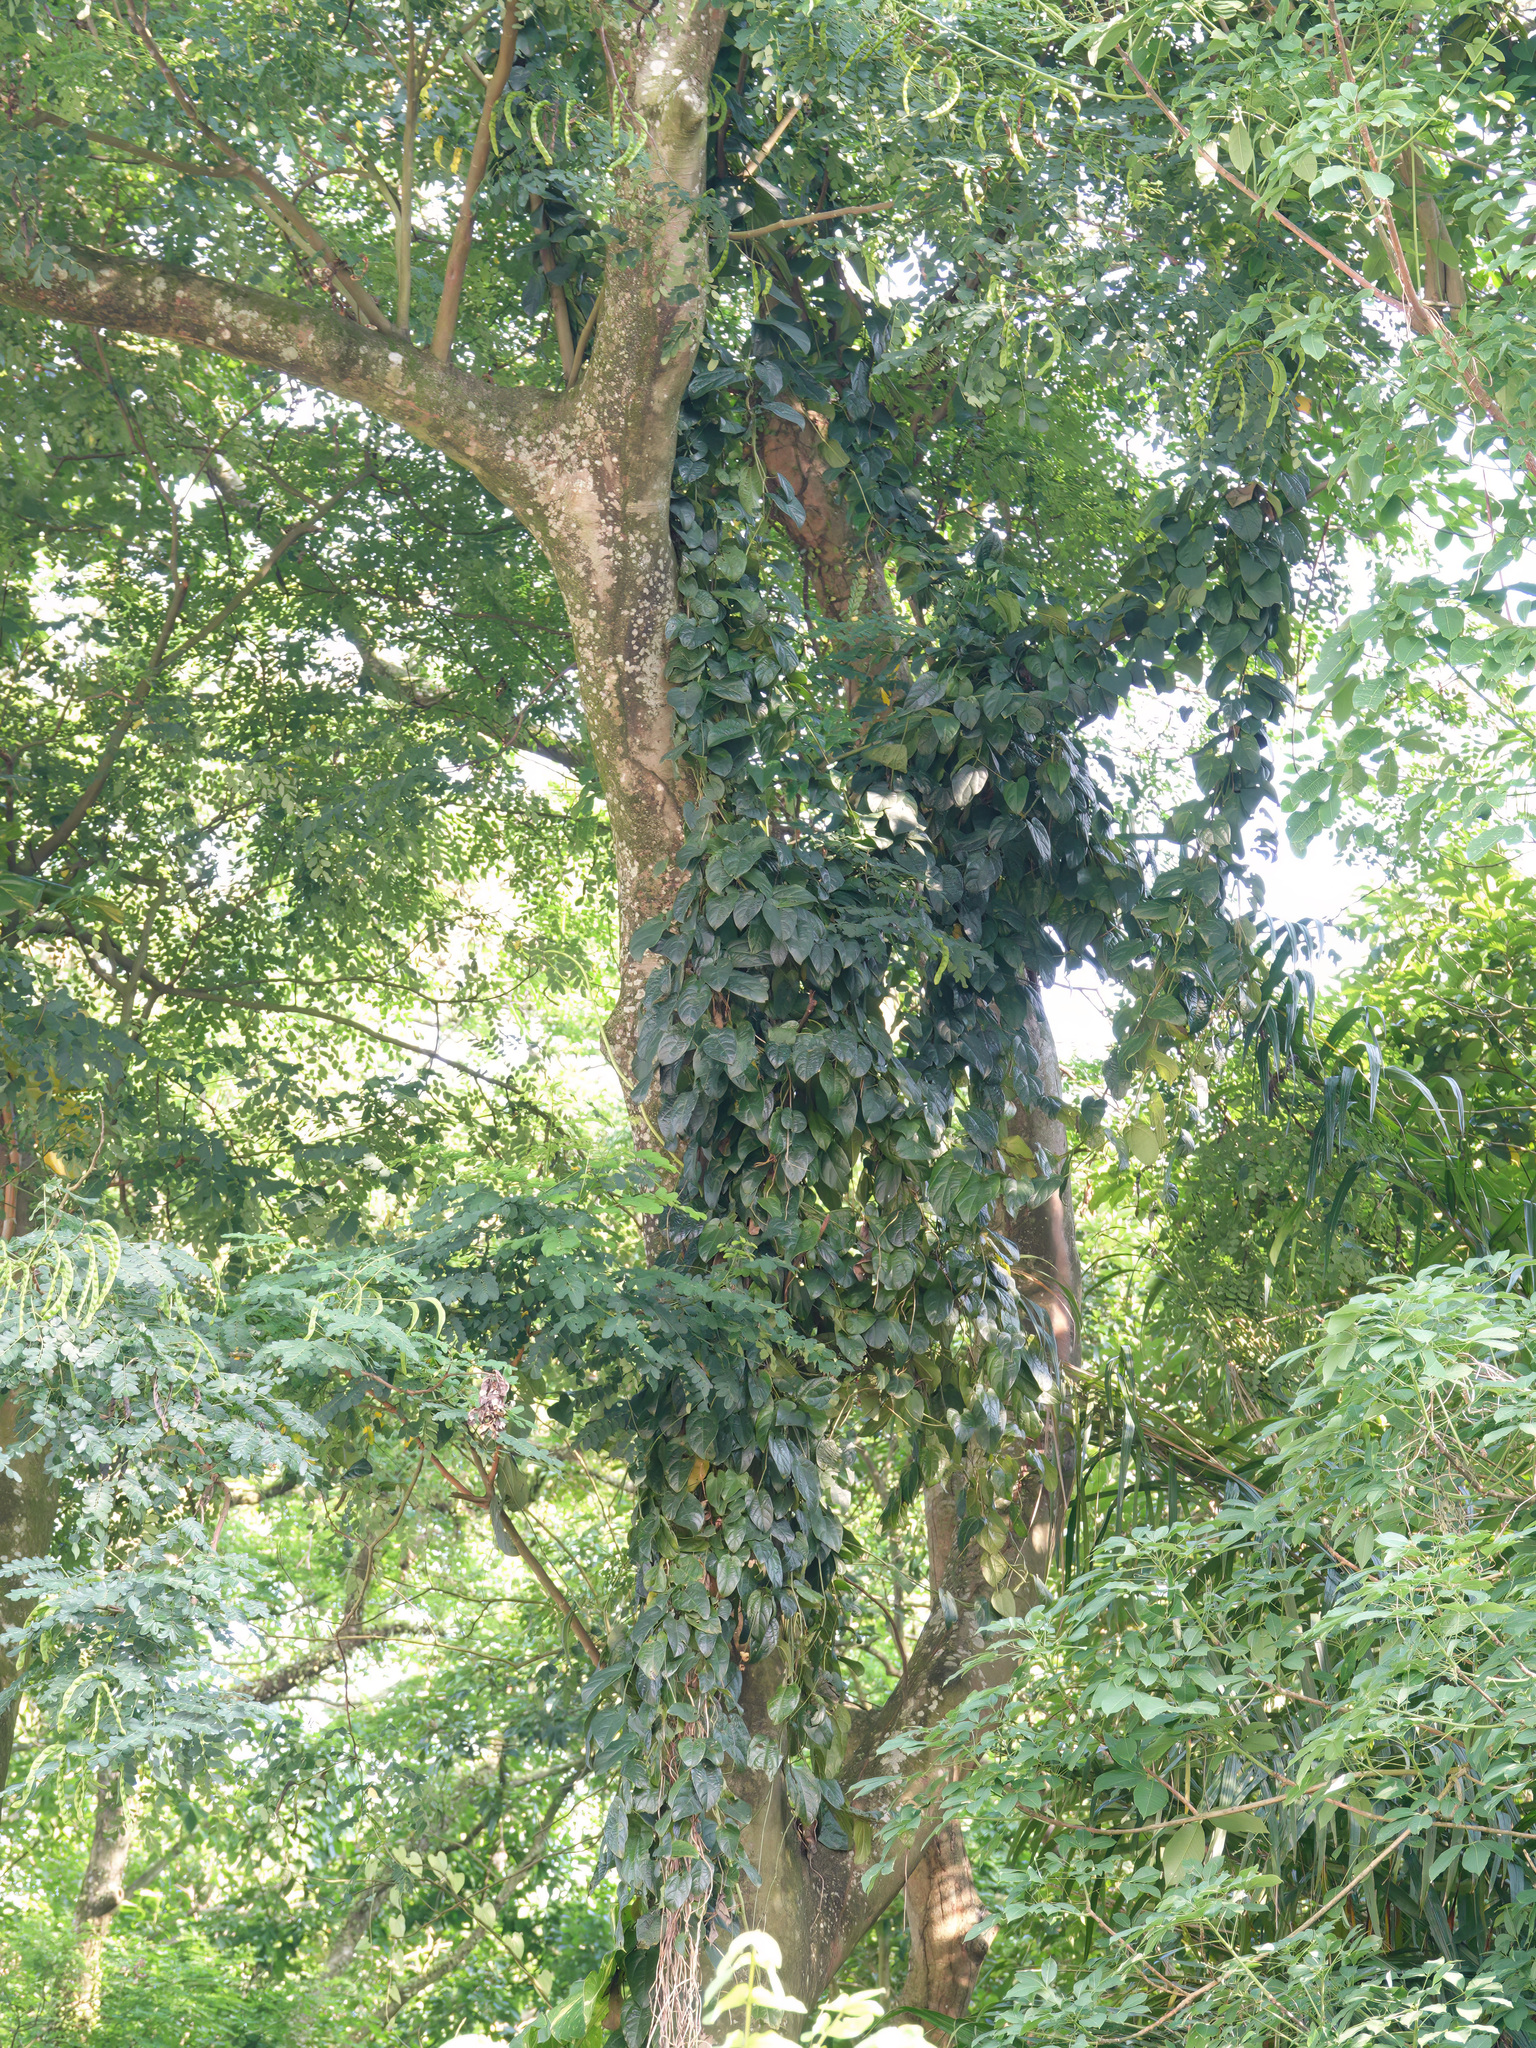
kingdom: Plantae
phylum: Tracheophyta
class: Magnoliopsida
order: Piperales
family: Aristolochiaceae
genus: Aristolochia
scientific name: Aristolochia acuminata
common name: Indian birthwort
